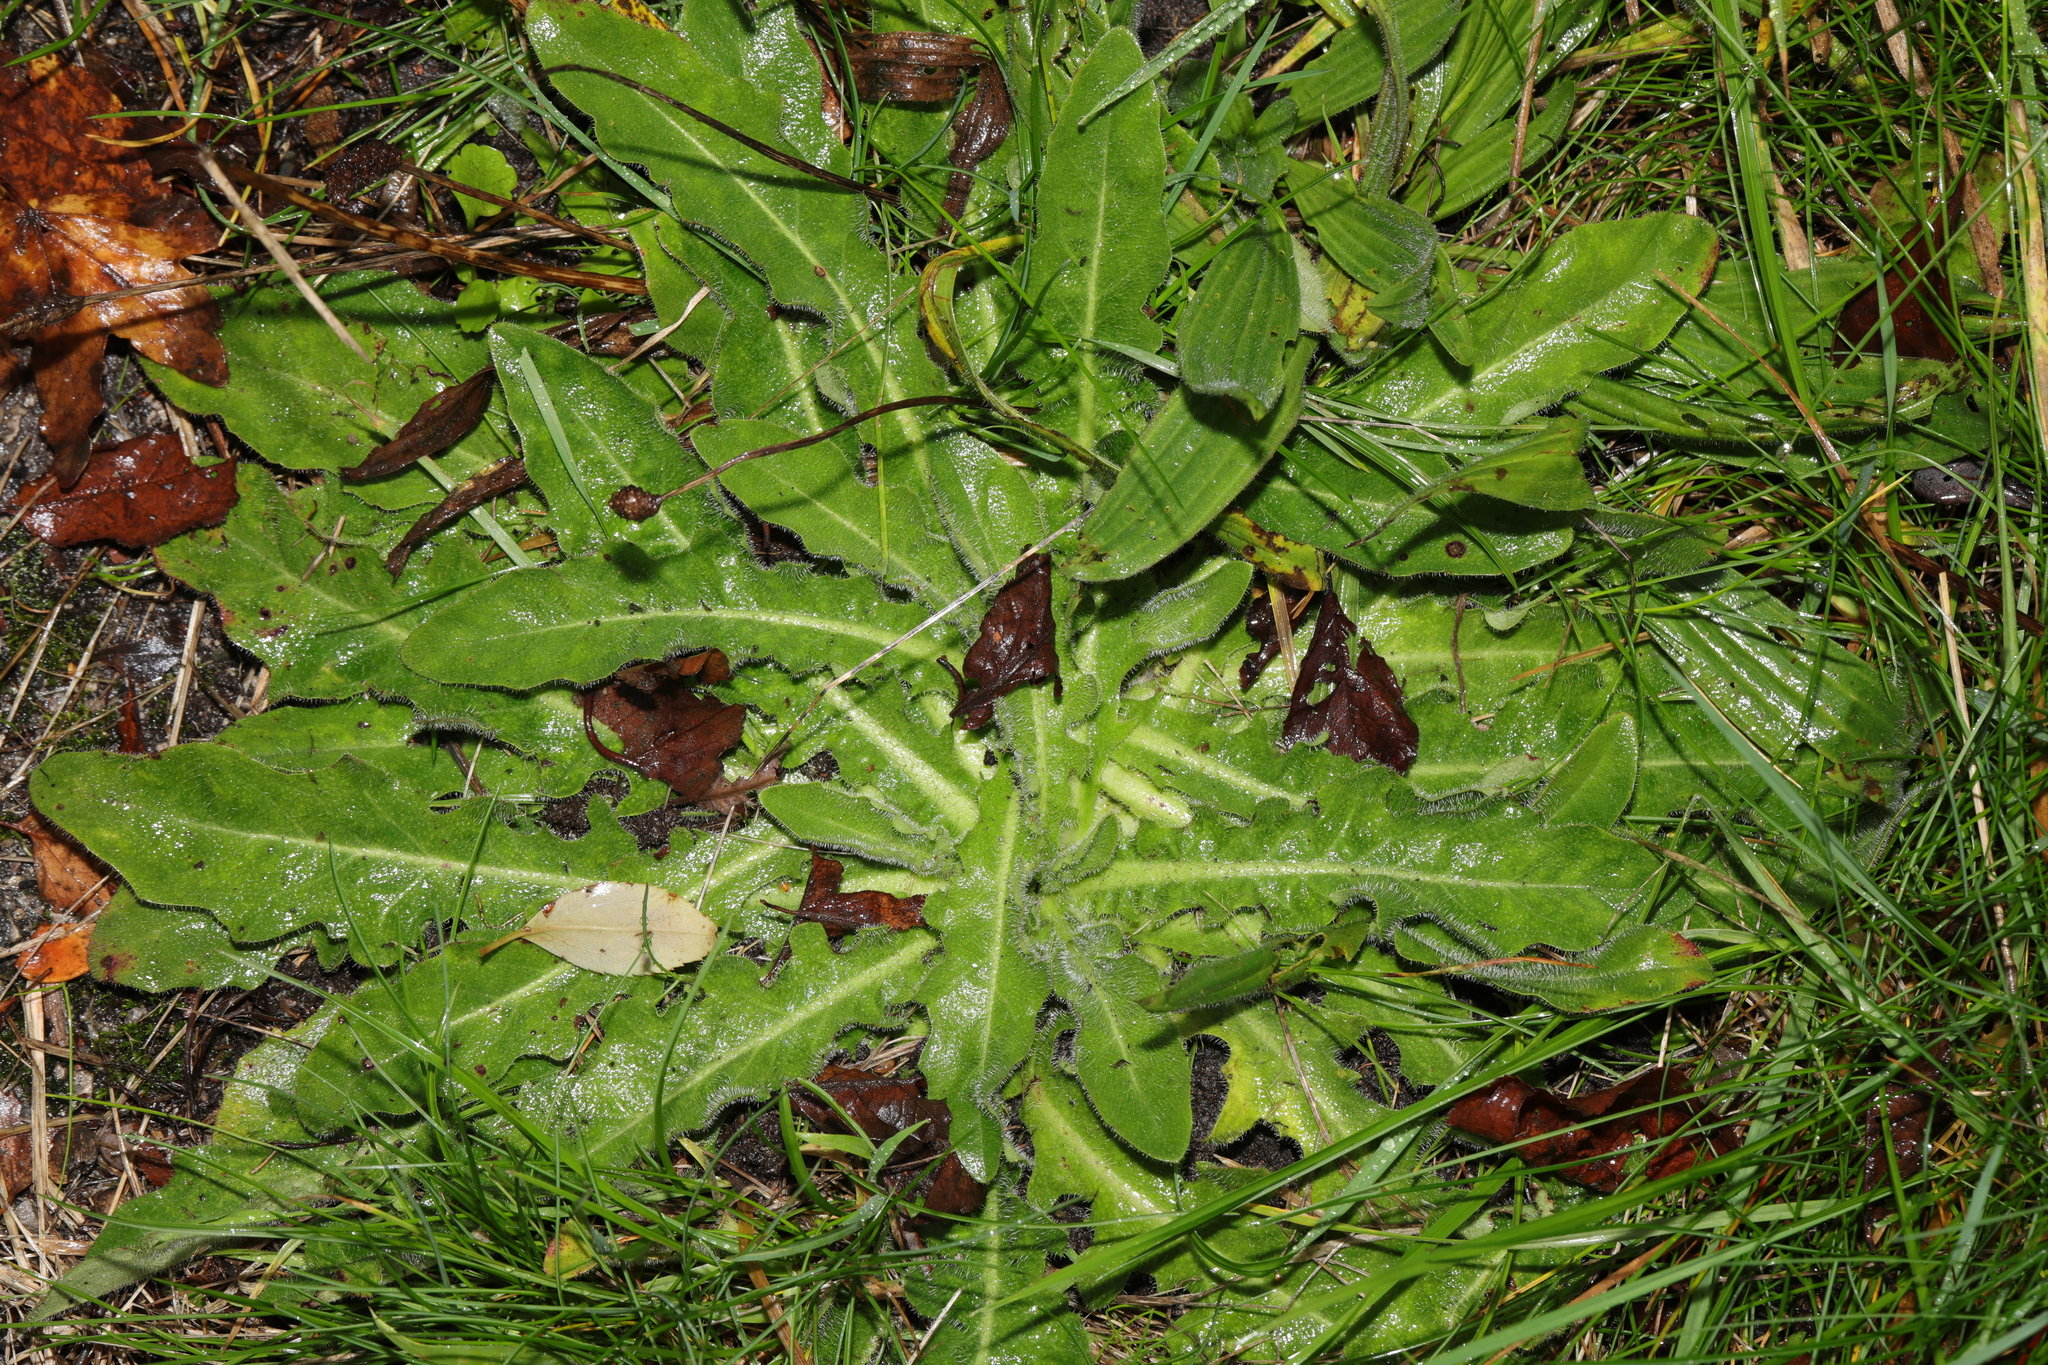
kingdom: Plantae
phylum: Tracheophyta
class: Magnoliopsida
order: Asterales
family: Asteraceae
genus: Hypochaeris
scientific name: Hypochaeris radicata
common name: Flatweed
